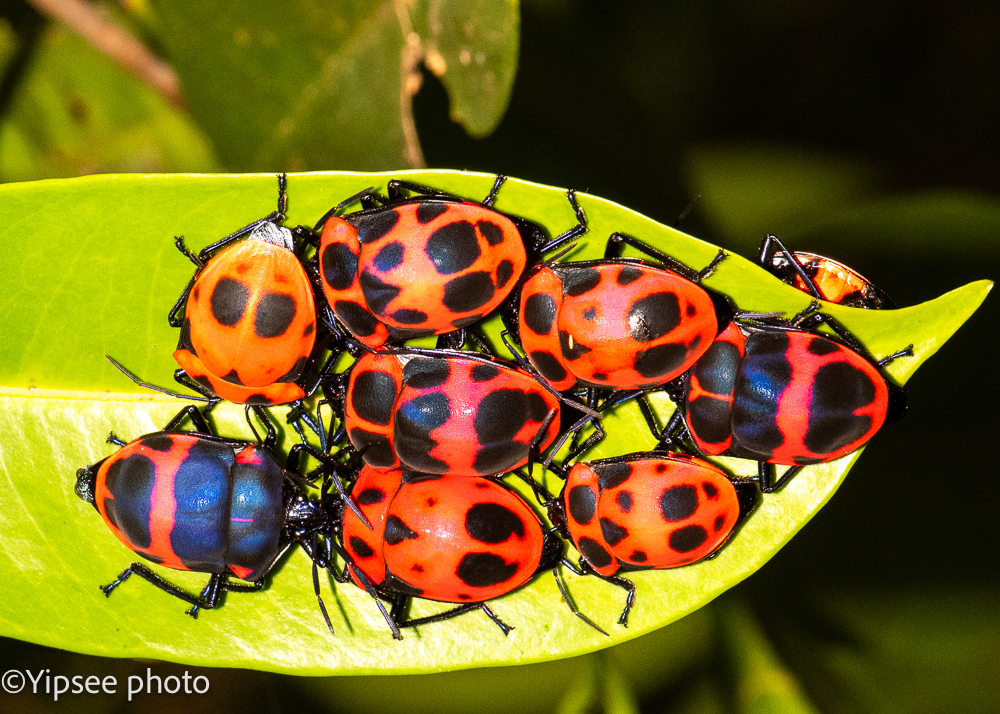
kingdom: Animalia
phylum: Arthropoda
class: Insecta
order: Hemiptera
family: Scutelleridae
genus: Poecilocoris
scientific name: Poecilocoris nepalensis
